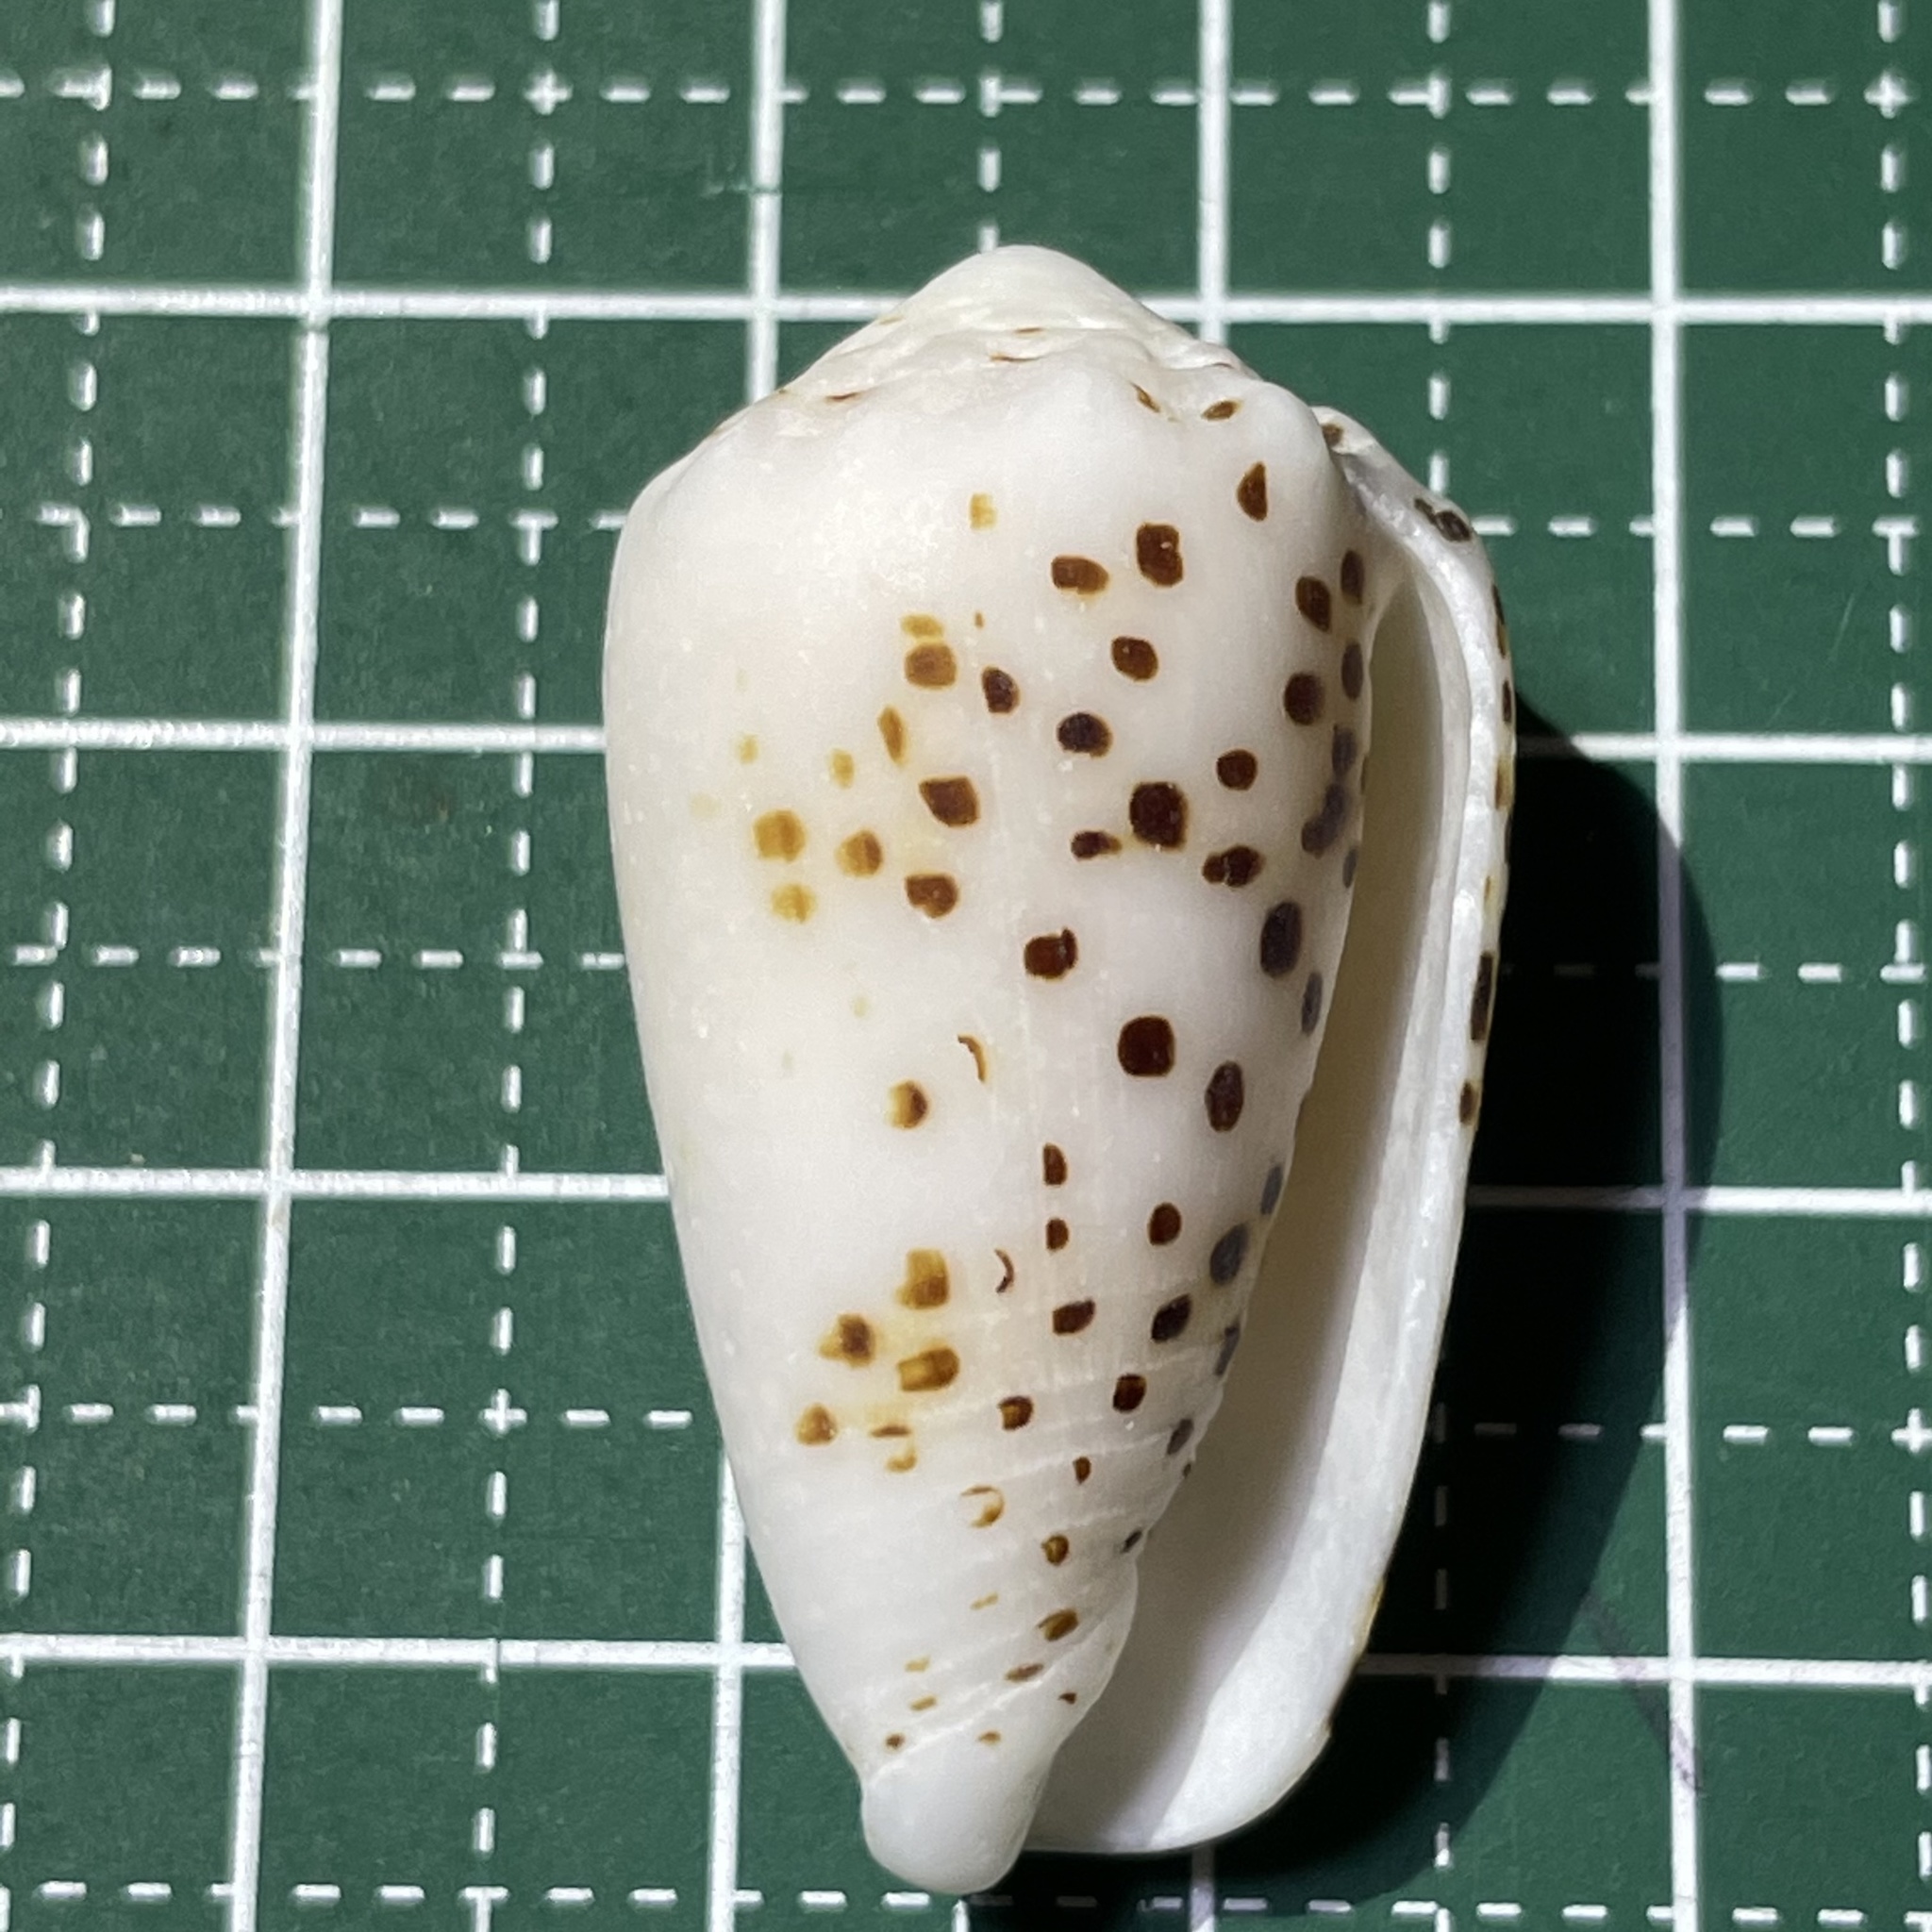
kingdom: Animalia
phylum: Mollusca
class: Gastropoda
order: Neogastropoda
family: Conidae
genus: Conus
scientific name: Conus pulicarius
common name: Flea-bite cone
